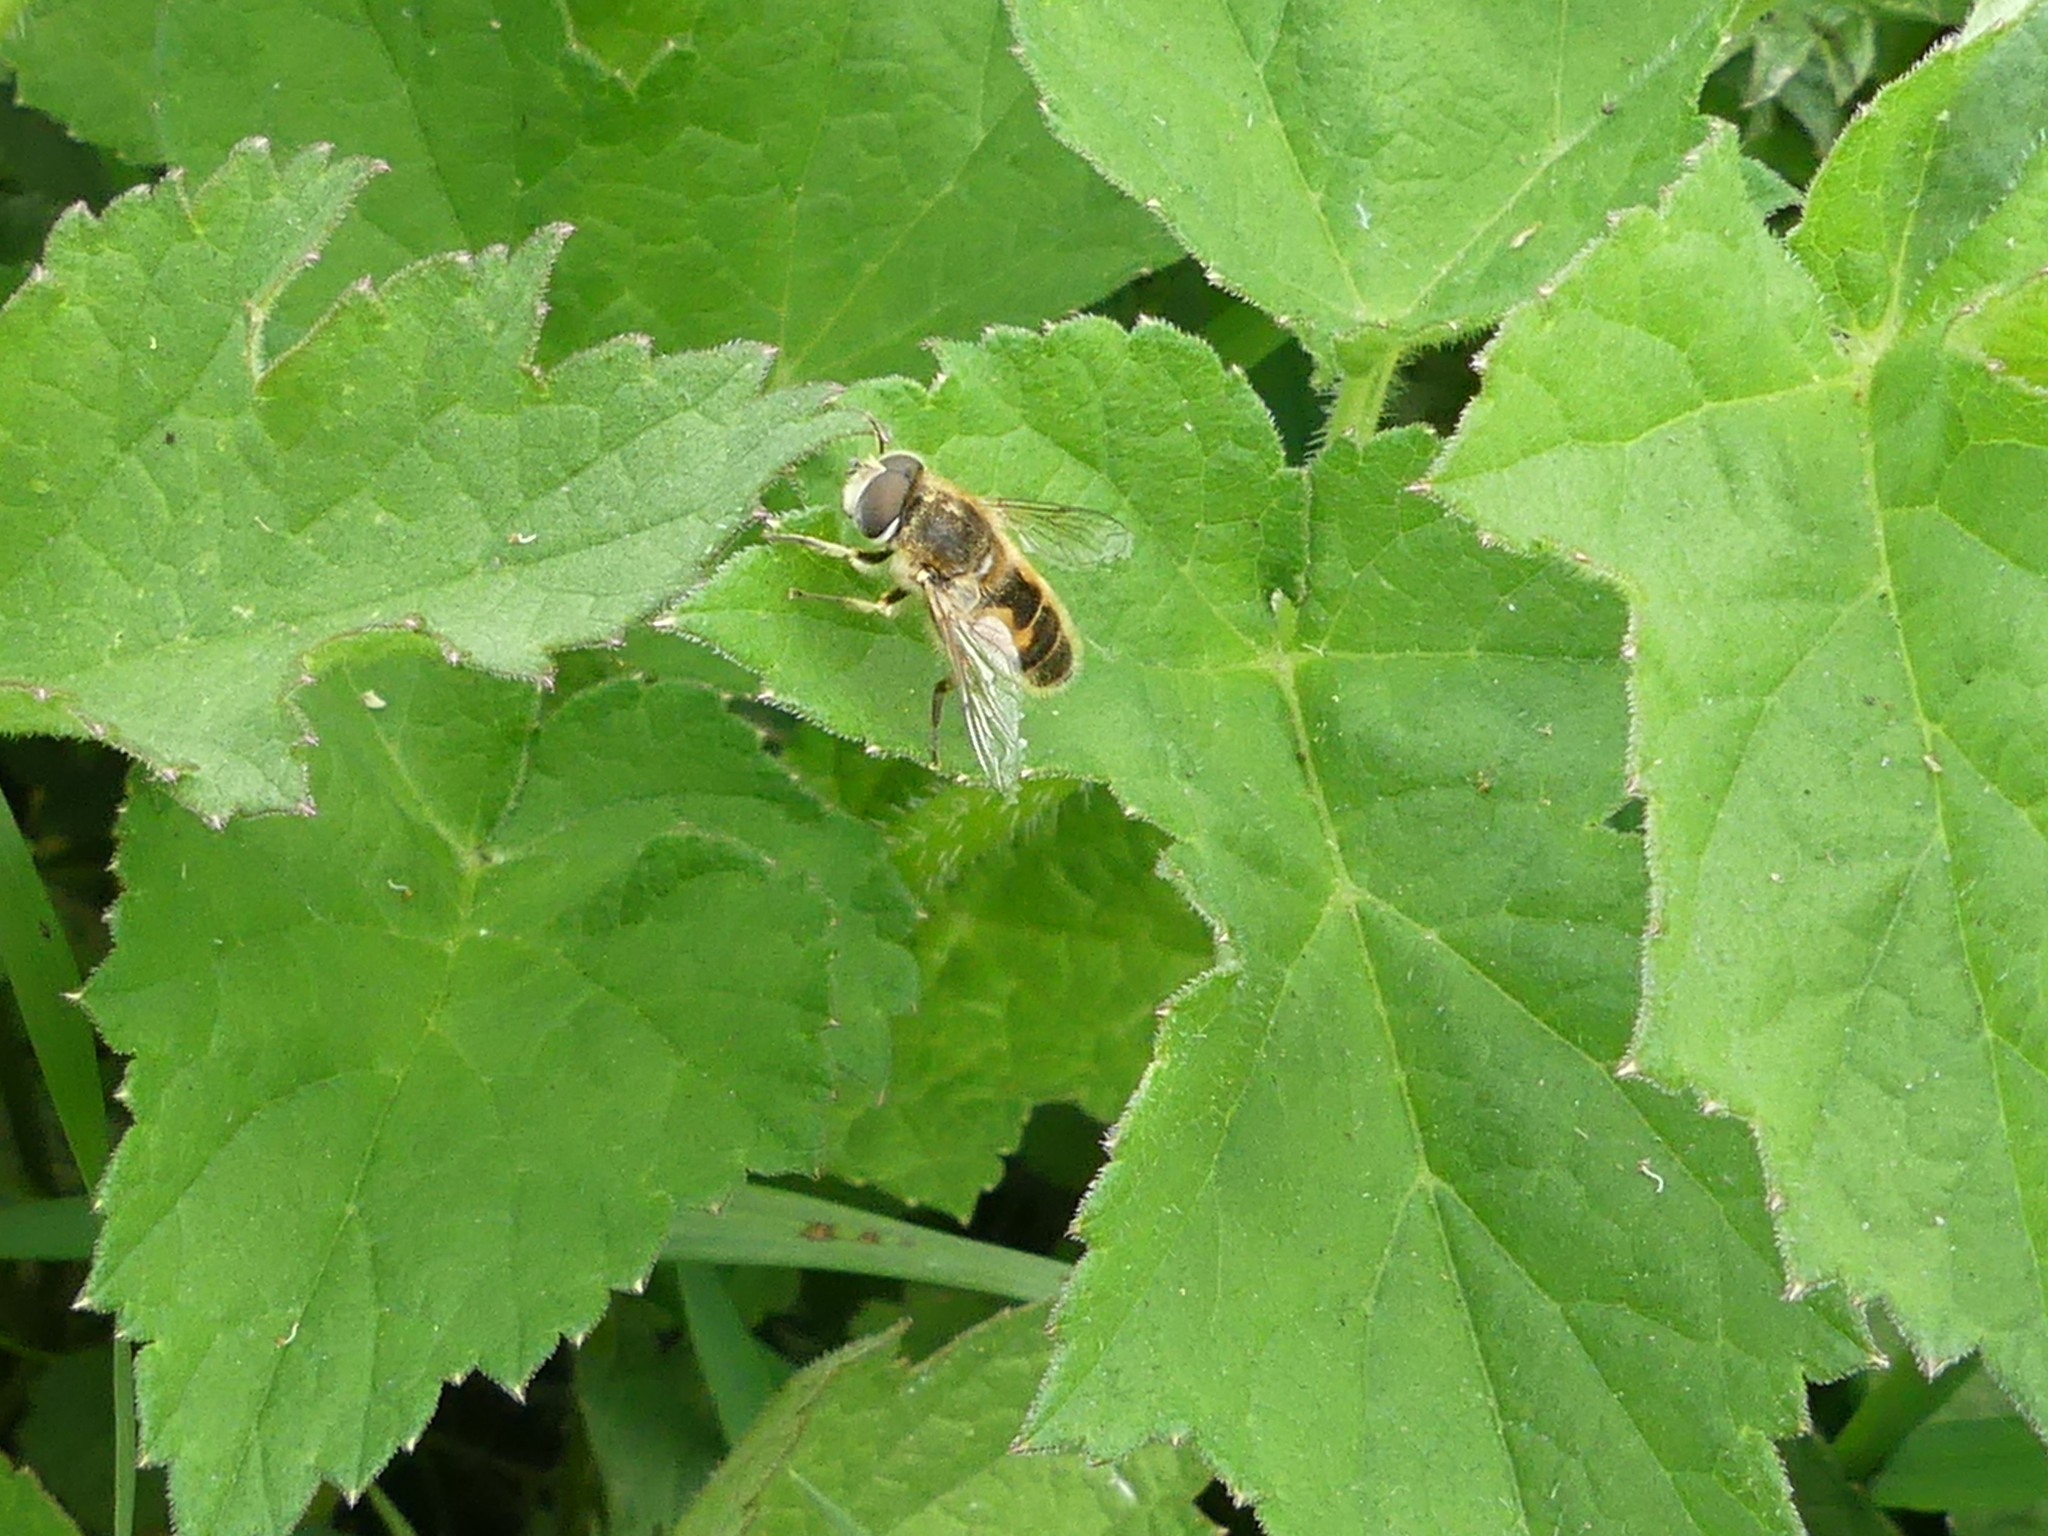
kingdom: Animalia
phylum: Arthropoda
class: Insecta
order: Diptera
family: Syrphidae
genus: Eristalis
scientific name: Eristalis arbustorum
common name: Hover fly
